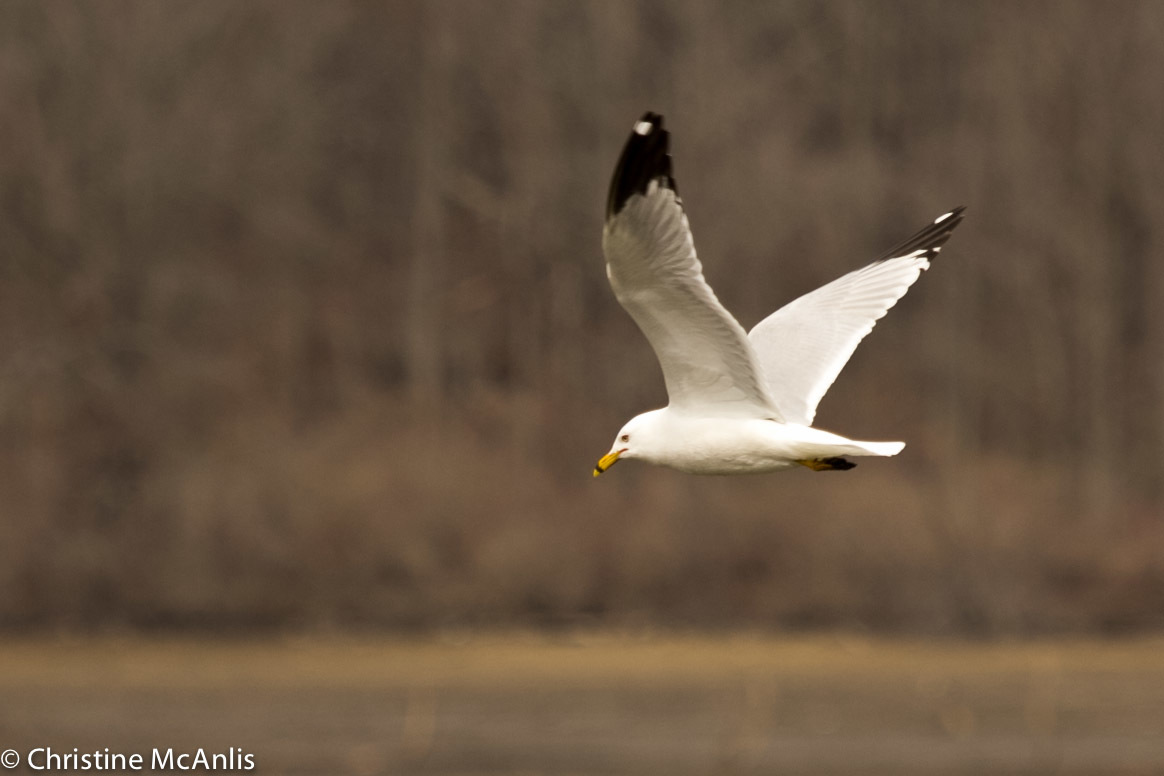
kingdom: Animalia
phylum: Chordata
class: Aves
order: Charadriiformes
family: Laridae
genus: Larus
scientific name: Larus delawarensis
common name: Ring-billed gull
